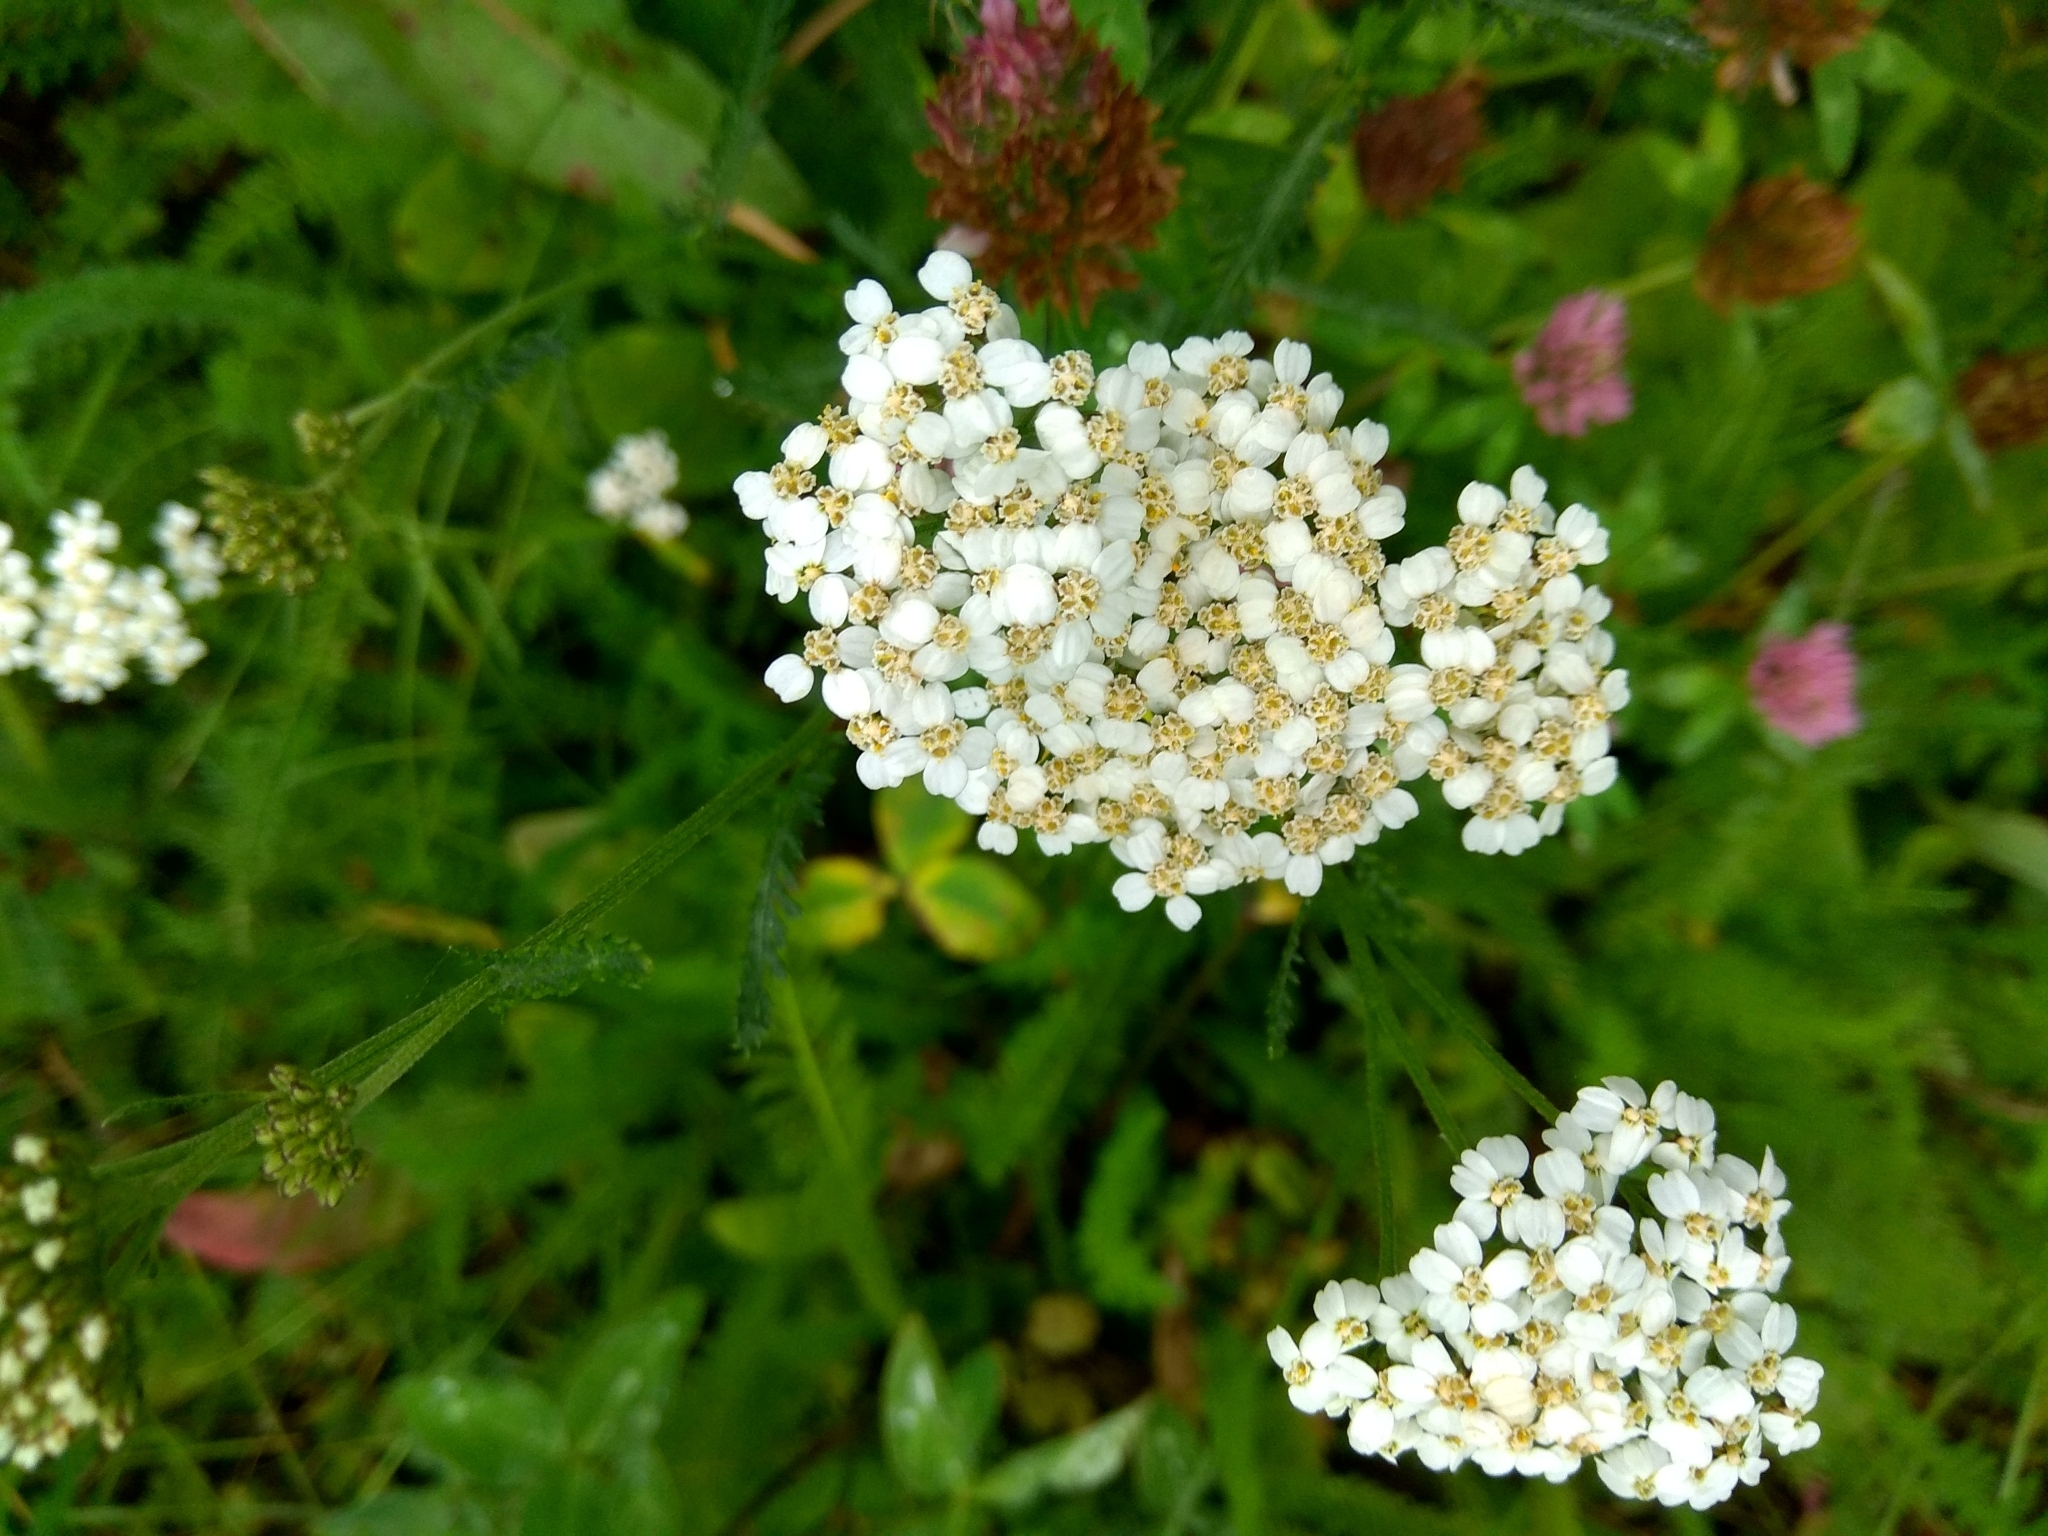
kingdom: Plantae
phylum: Tracheophyta
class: Magnoliopsida
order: Asterales
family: Asteraceae
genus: Achillea
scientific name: Achillea millefolium
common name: Yarrow
